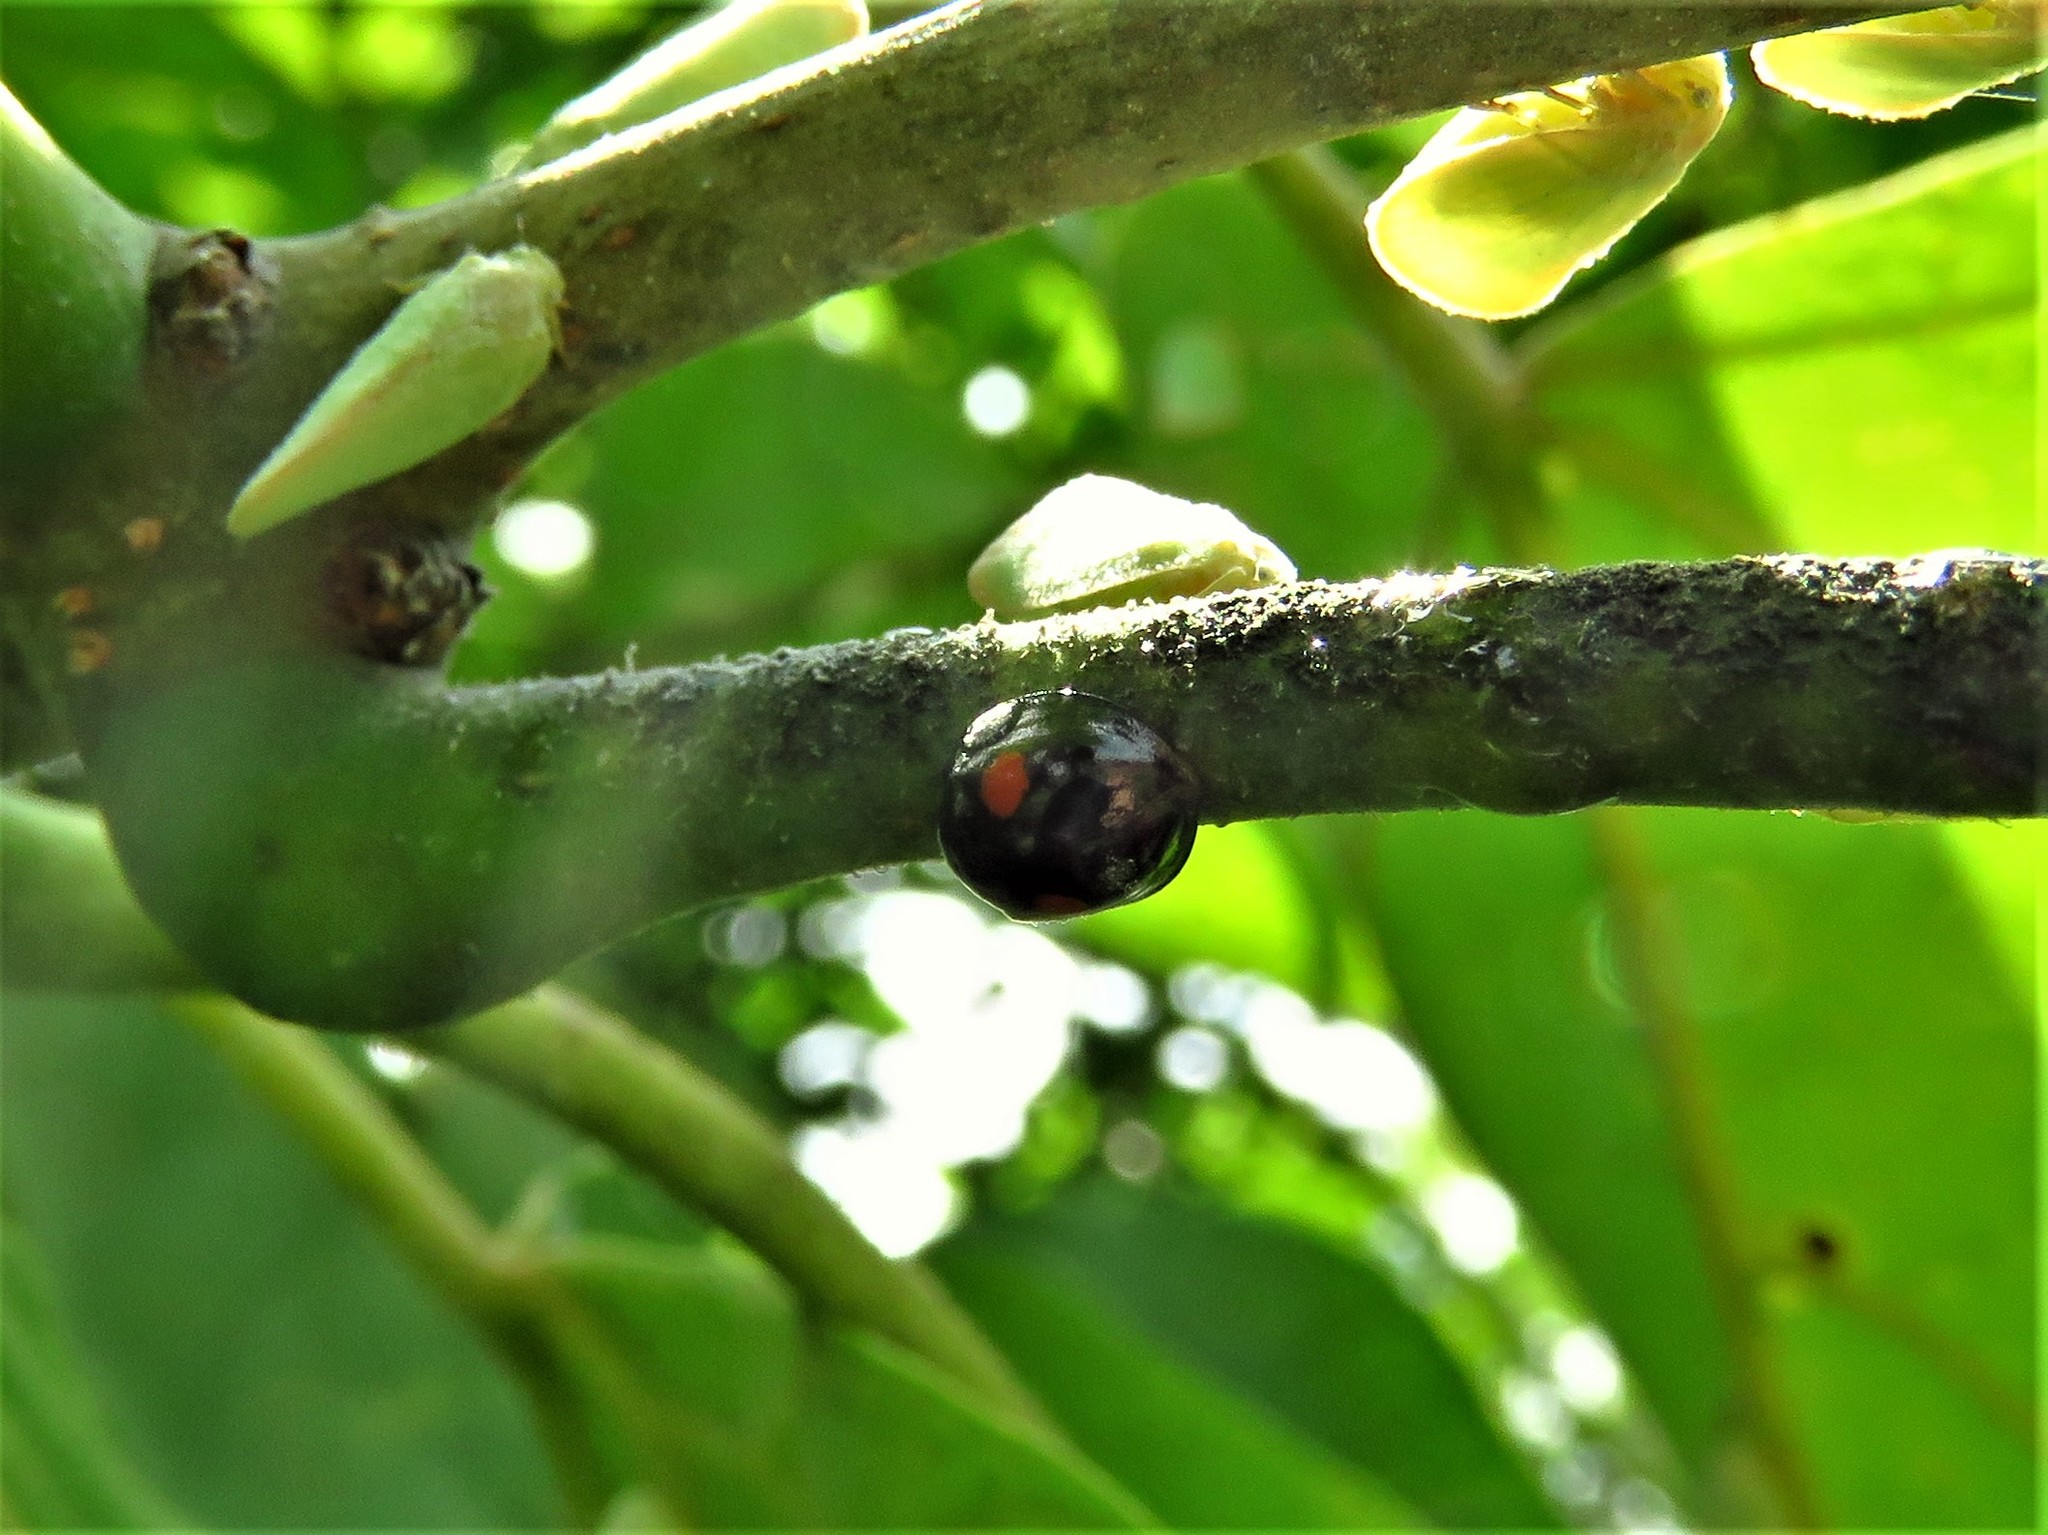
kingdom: Animalia
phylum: Arthropoda
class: Insecta
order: Coleoptera
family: Coccinellidae
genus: Chilocorus
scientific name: Chilocorus stigma
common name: Twicestabbed lady beetle
